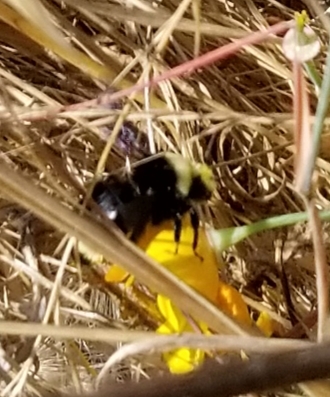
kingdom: Animalia
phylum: Arthropoda
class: Insecta
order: Hymenoptera
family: Apidae
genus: Bombus
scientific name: Bombus vosnesenskii
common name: Vosnesensky bumble bee
